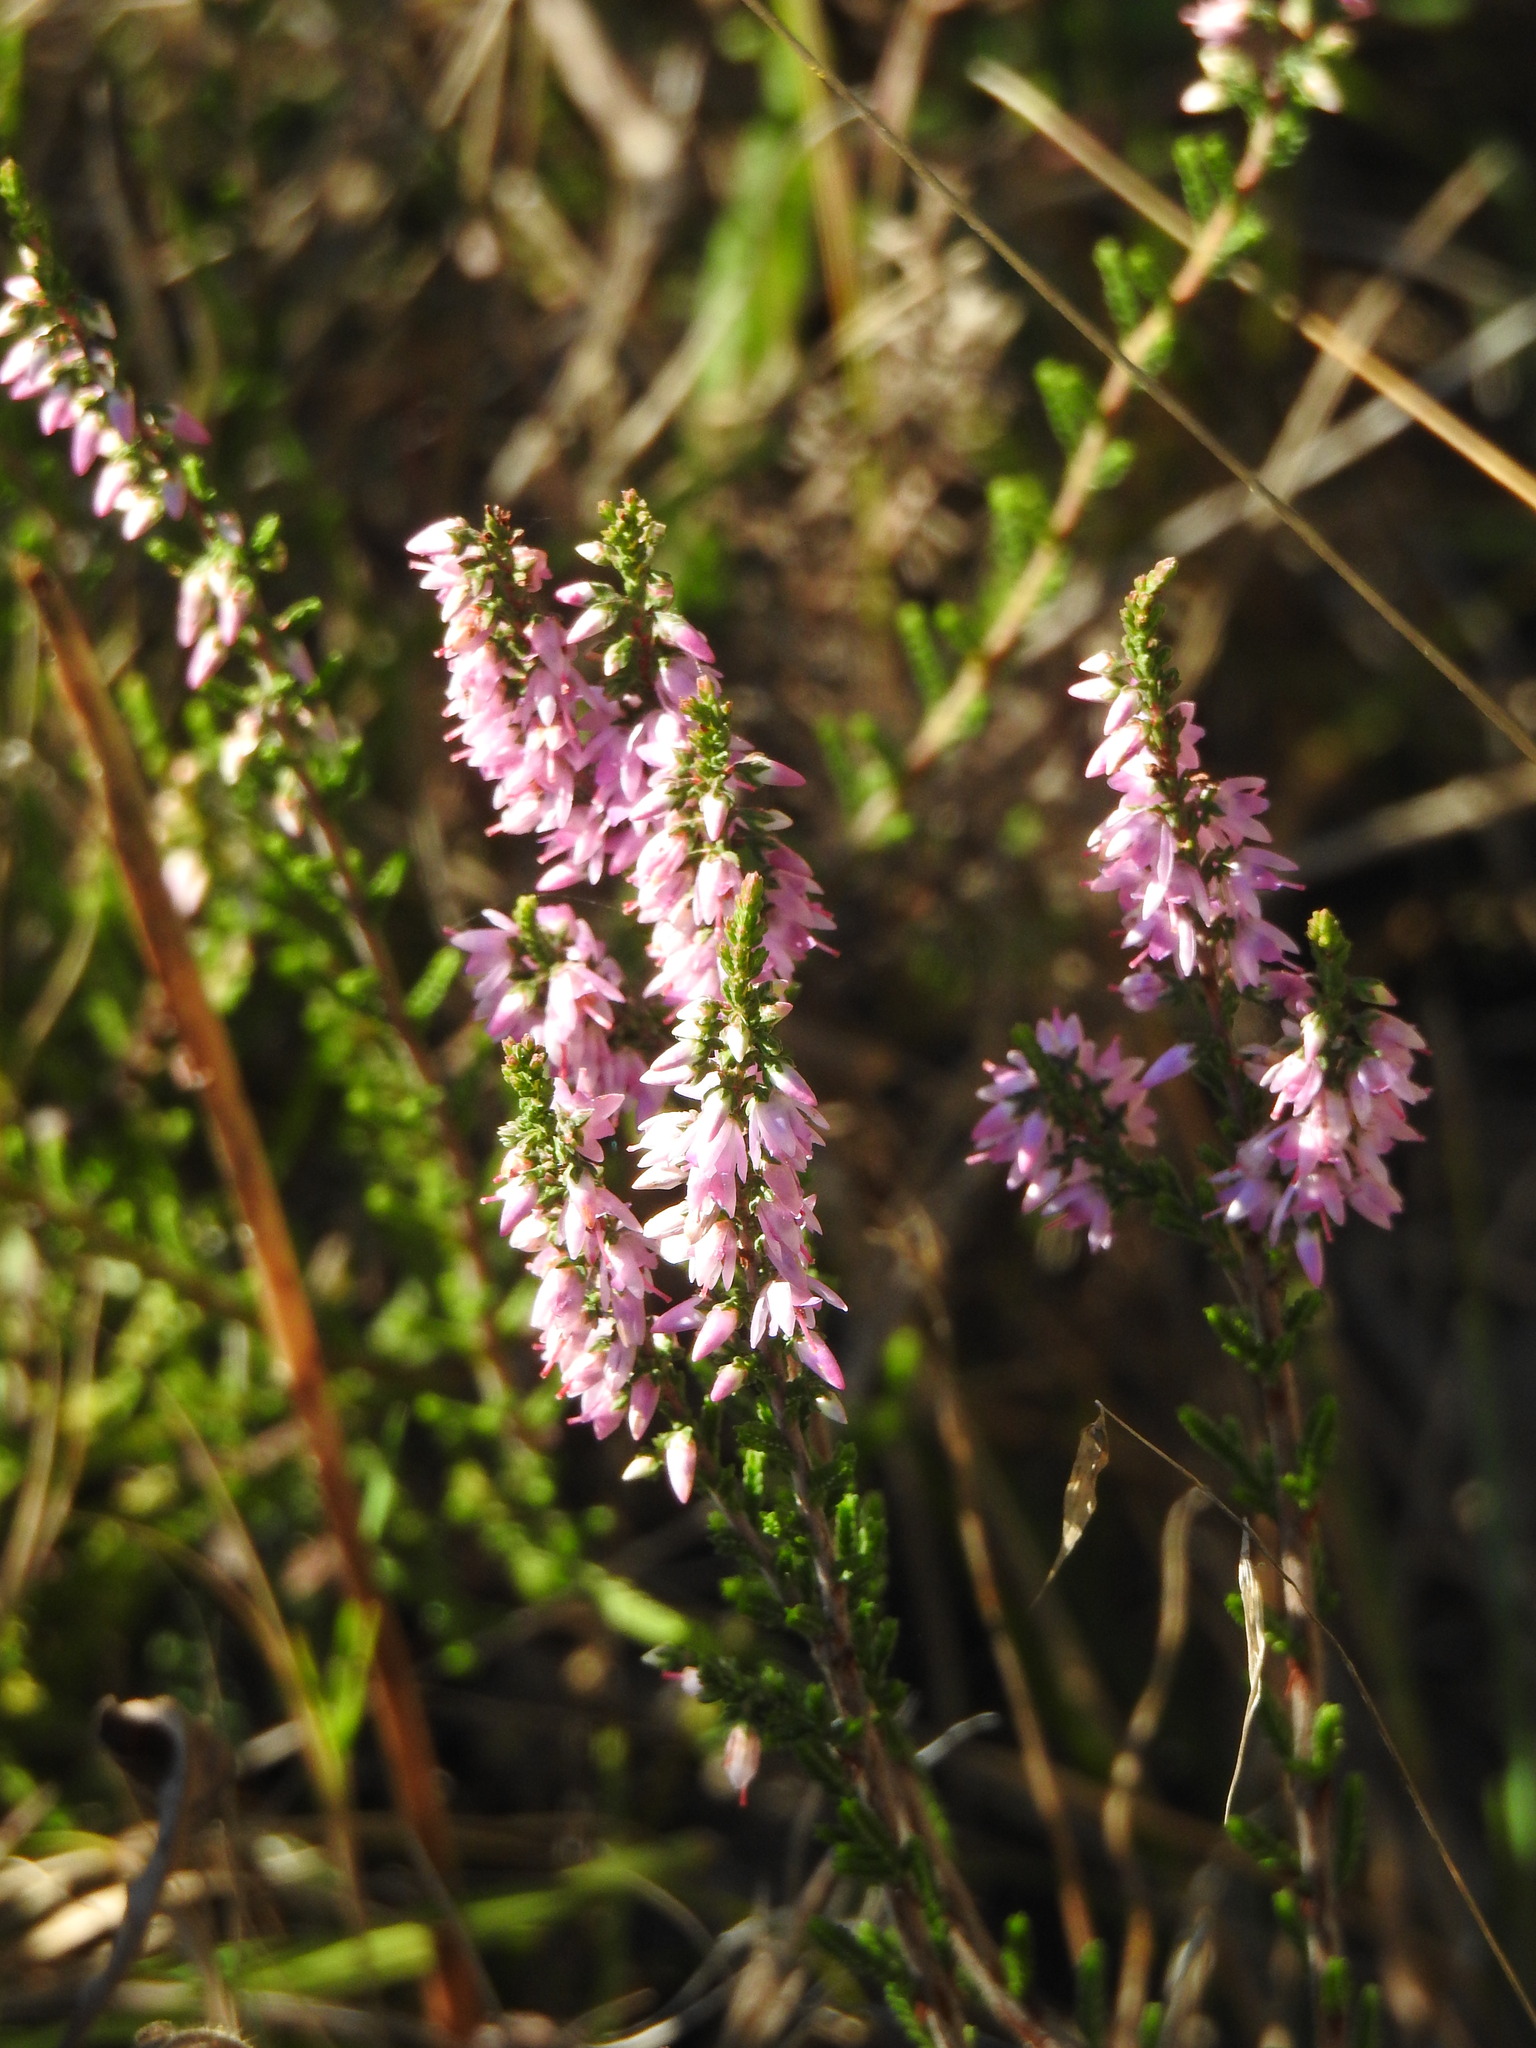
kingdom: Plantae
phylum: Tracheophyta
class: Magnoliopsida
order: Ericales
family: Ericaceae
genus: Calluna
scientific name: Calluna vulgaris
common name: Heather
